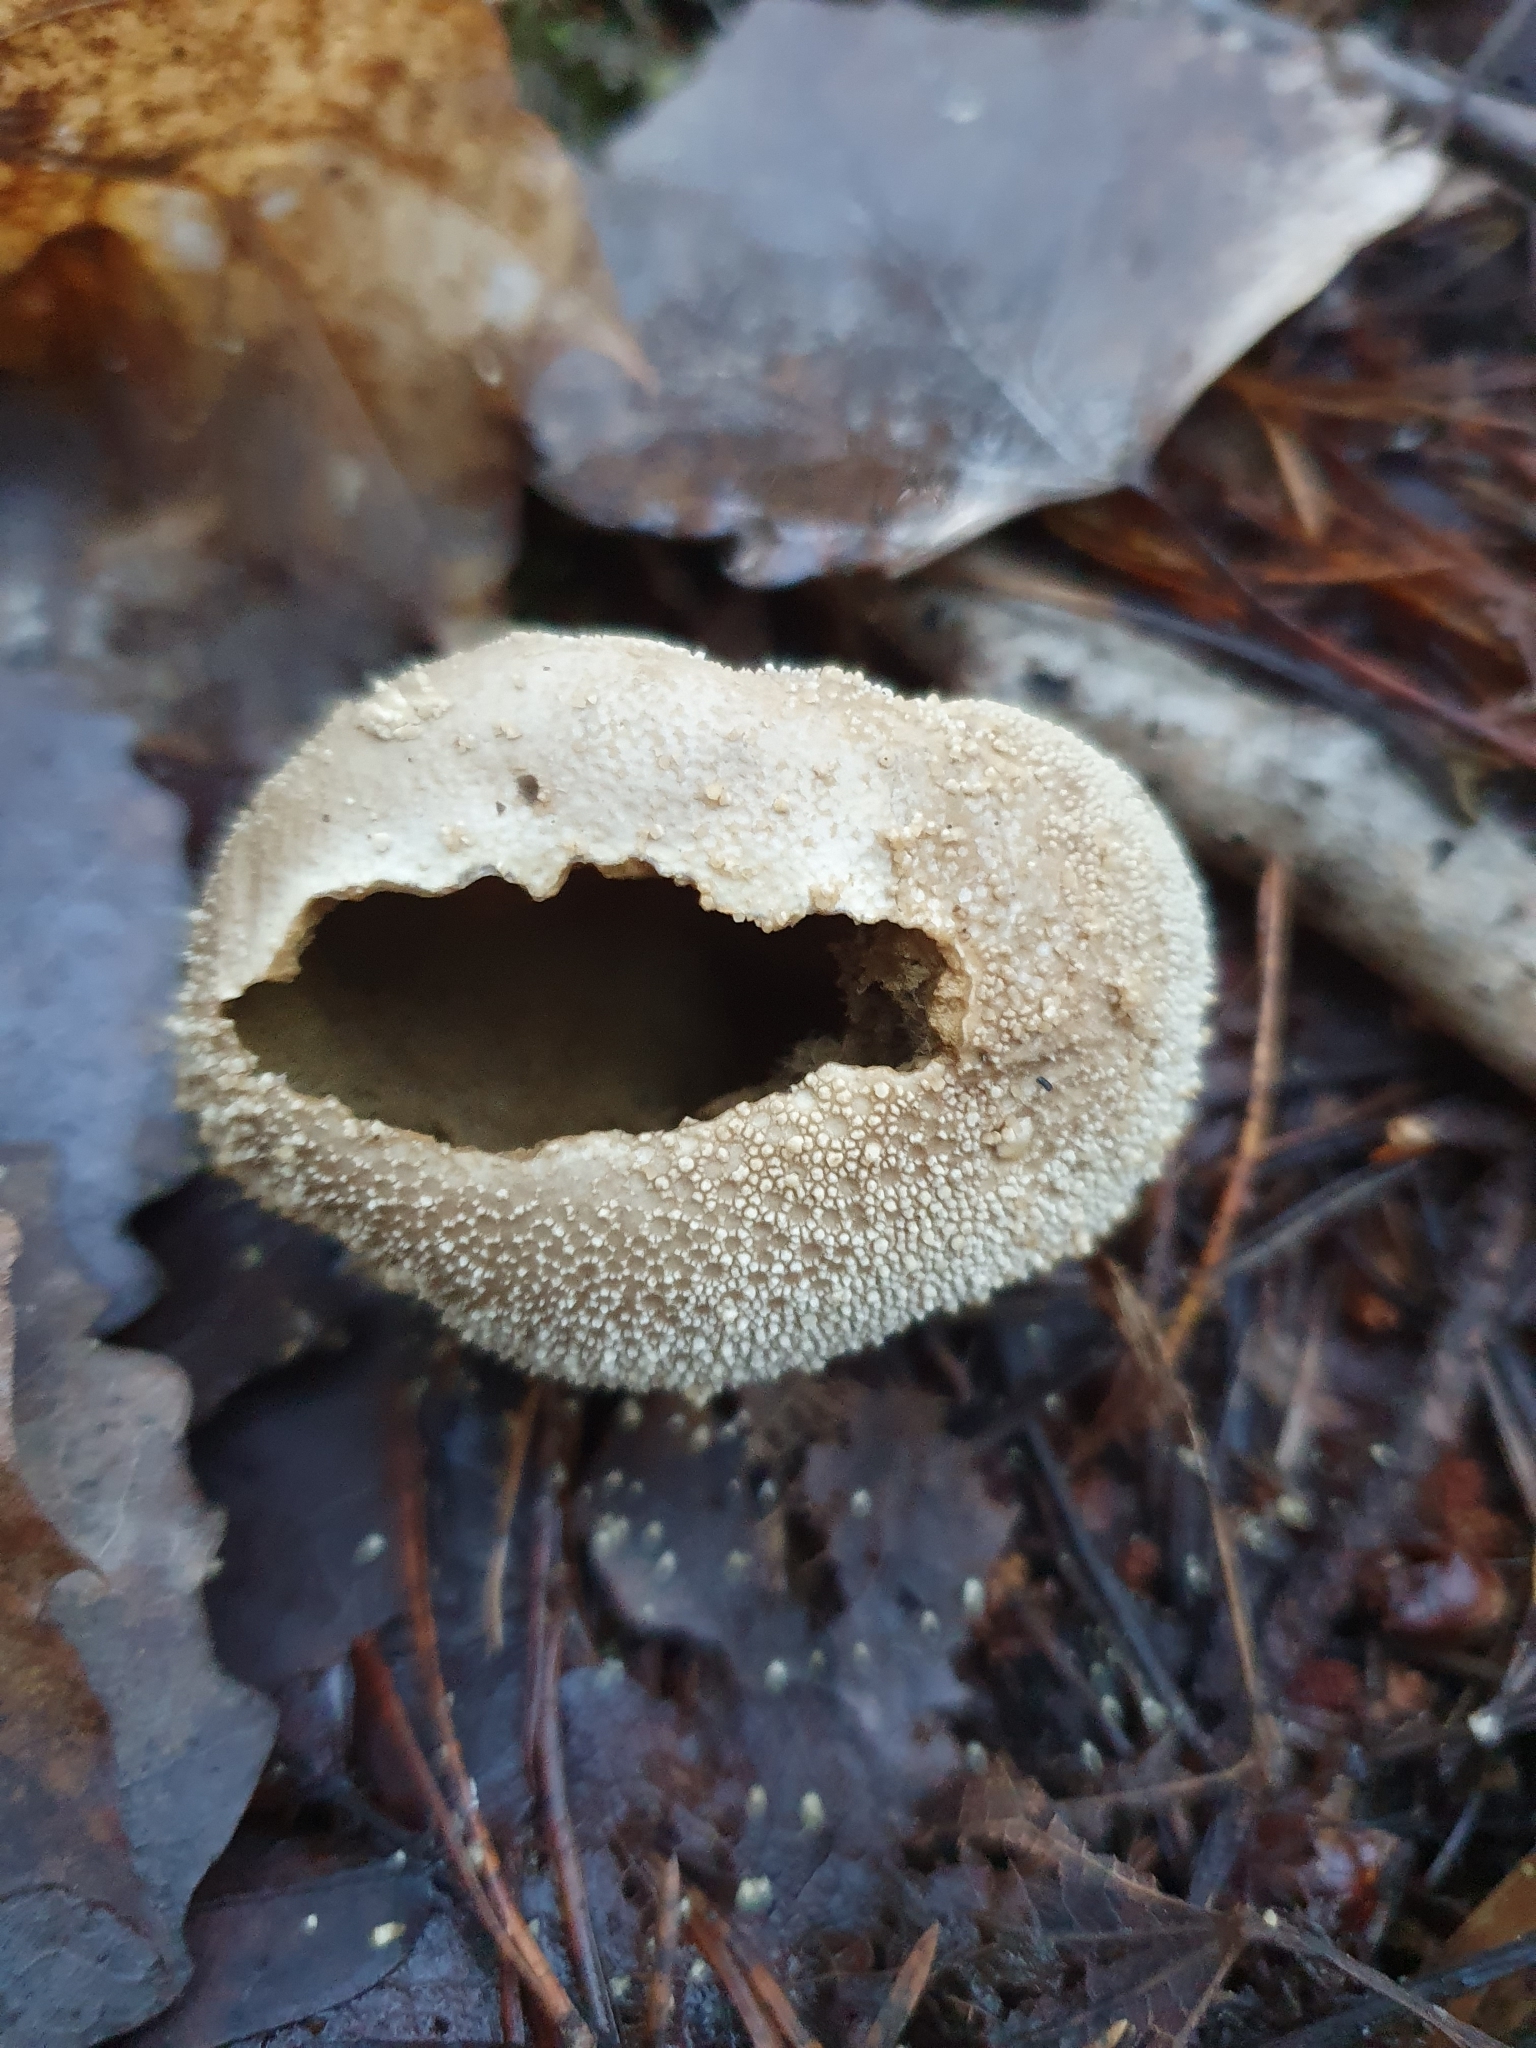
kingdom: Fungi
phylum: Basidiomycota
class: Agaricomycetes
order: Agaricales
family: Lycoperdaceae
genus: Lycoperdon
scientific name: Lycoperdon perlatum
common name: Common puffball
